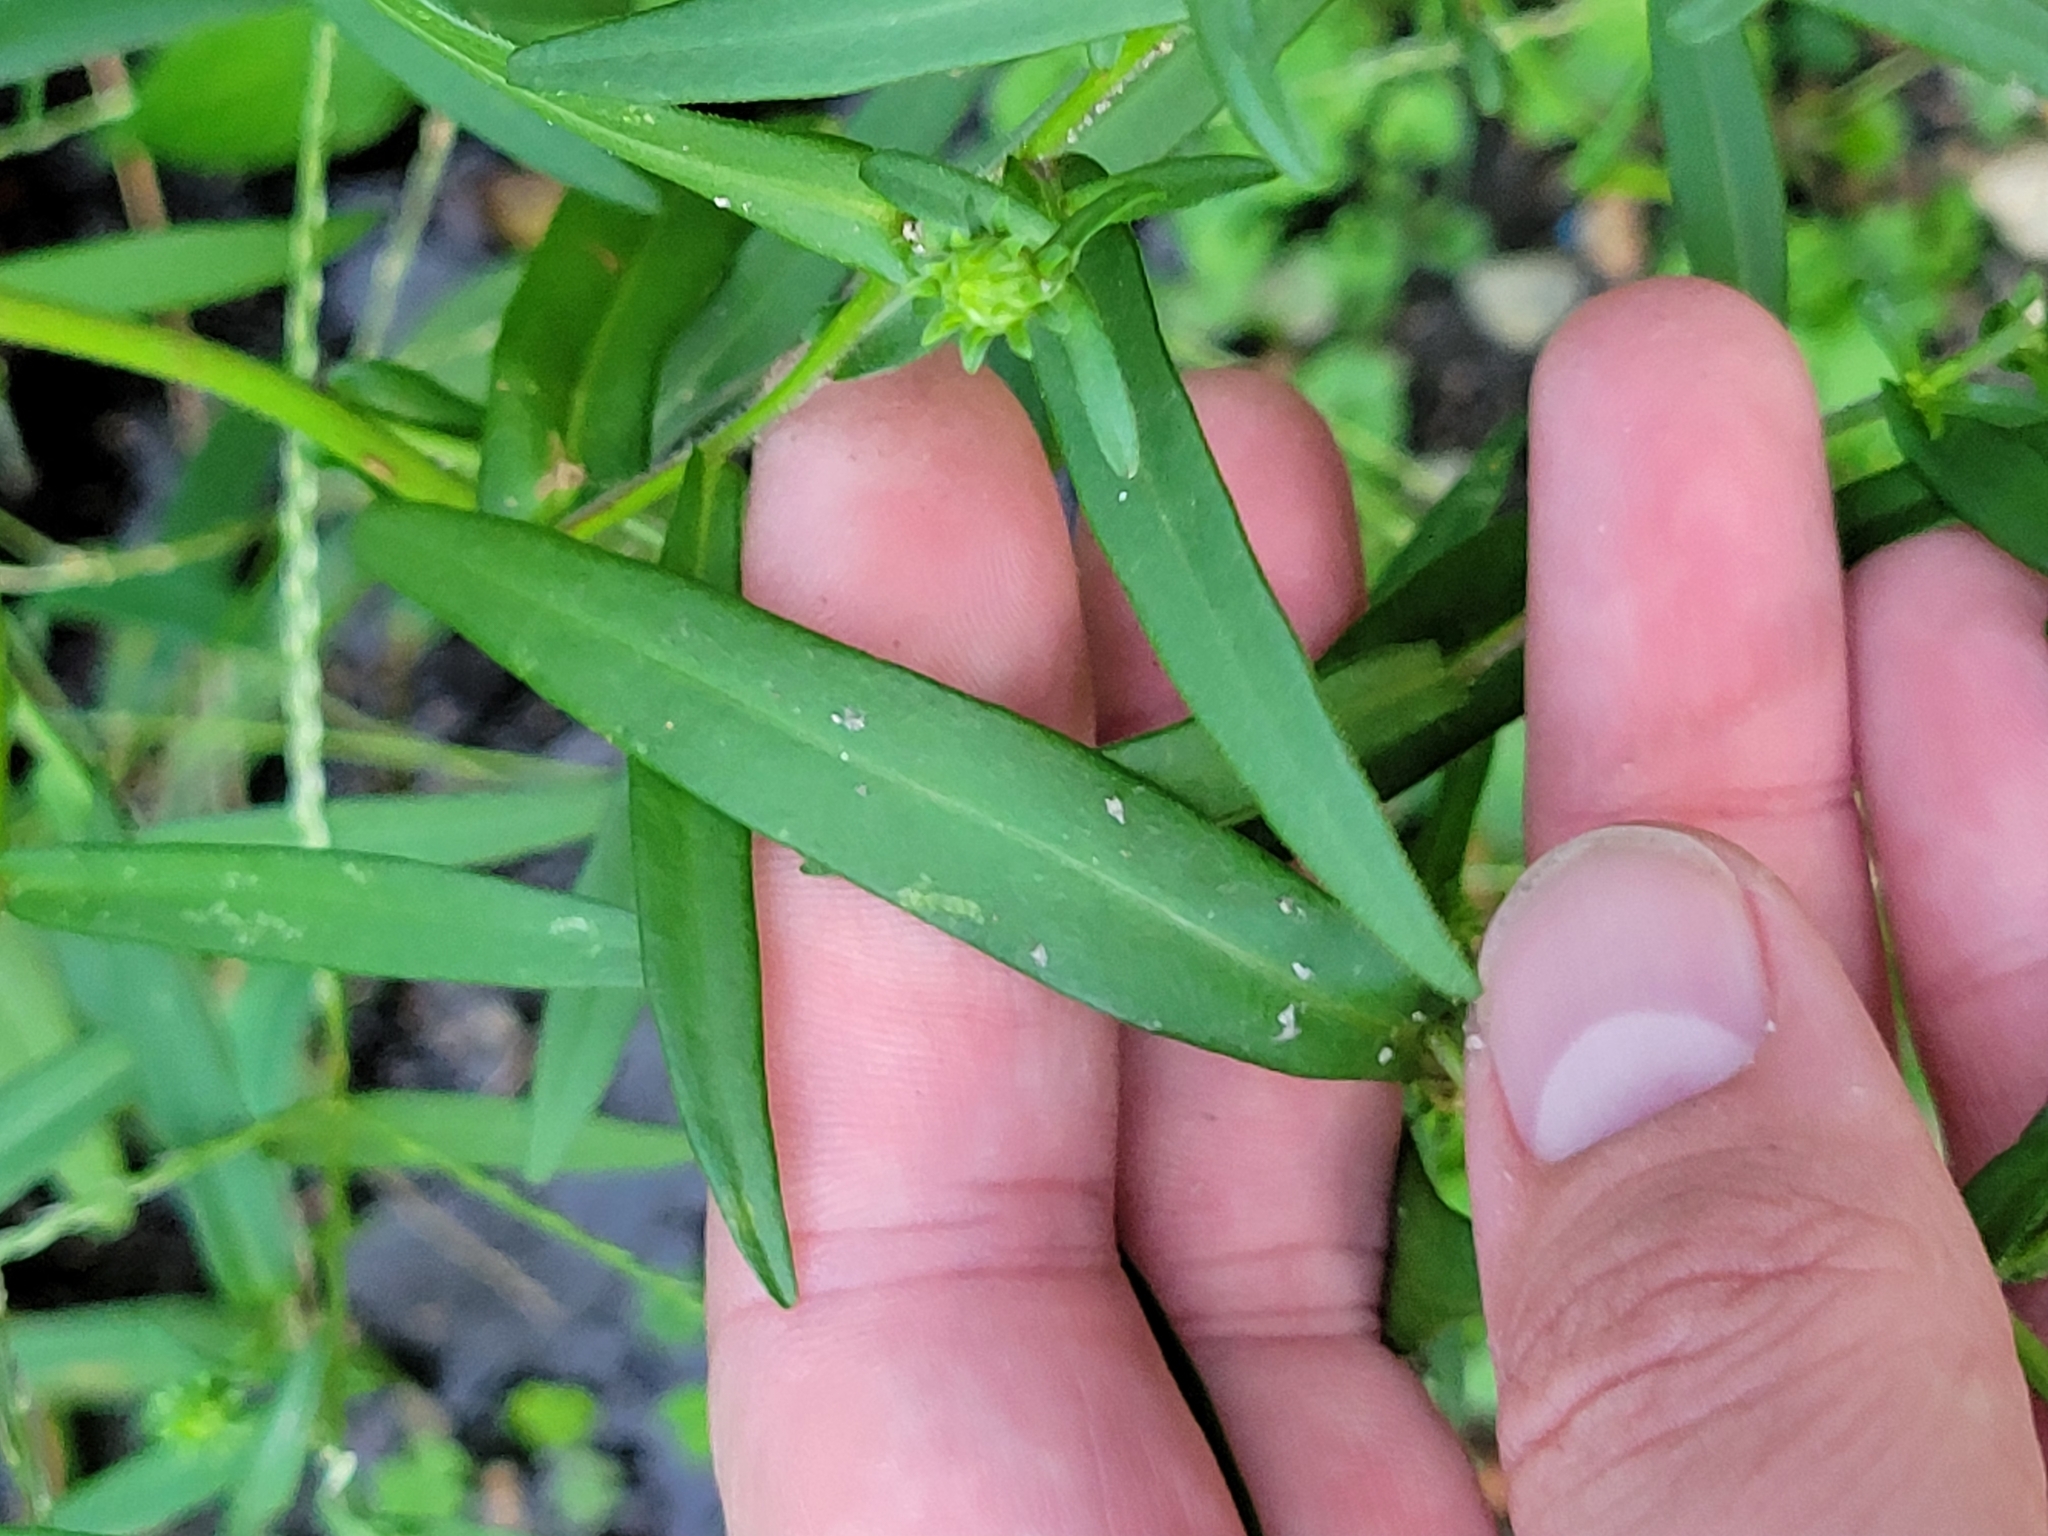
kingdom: Plantae
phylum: Tracheophyta
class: Magnoliopsida
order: Asterales
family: Asteraceae
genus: Symphyotrichum
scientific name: Symphyotrichum novi-belgii
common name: Michaelmas daisy
